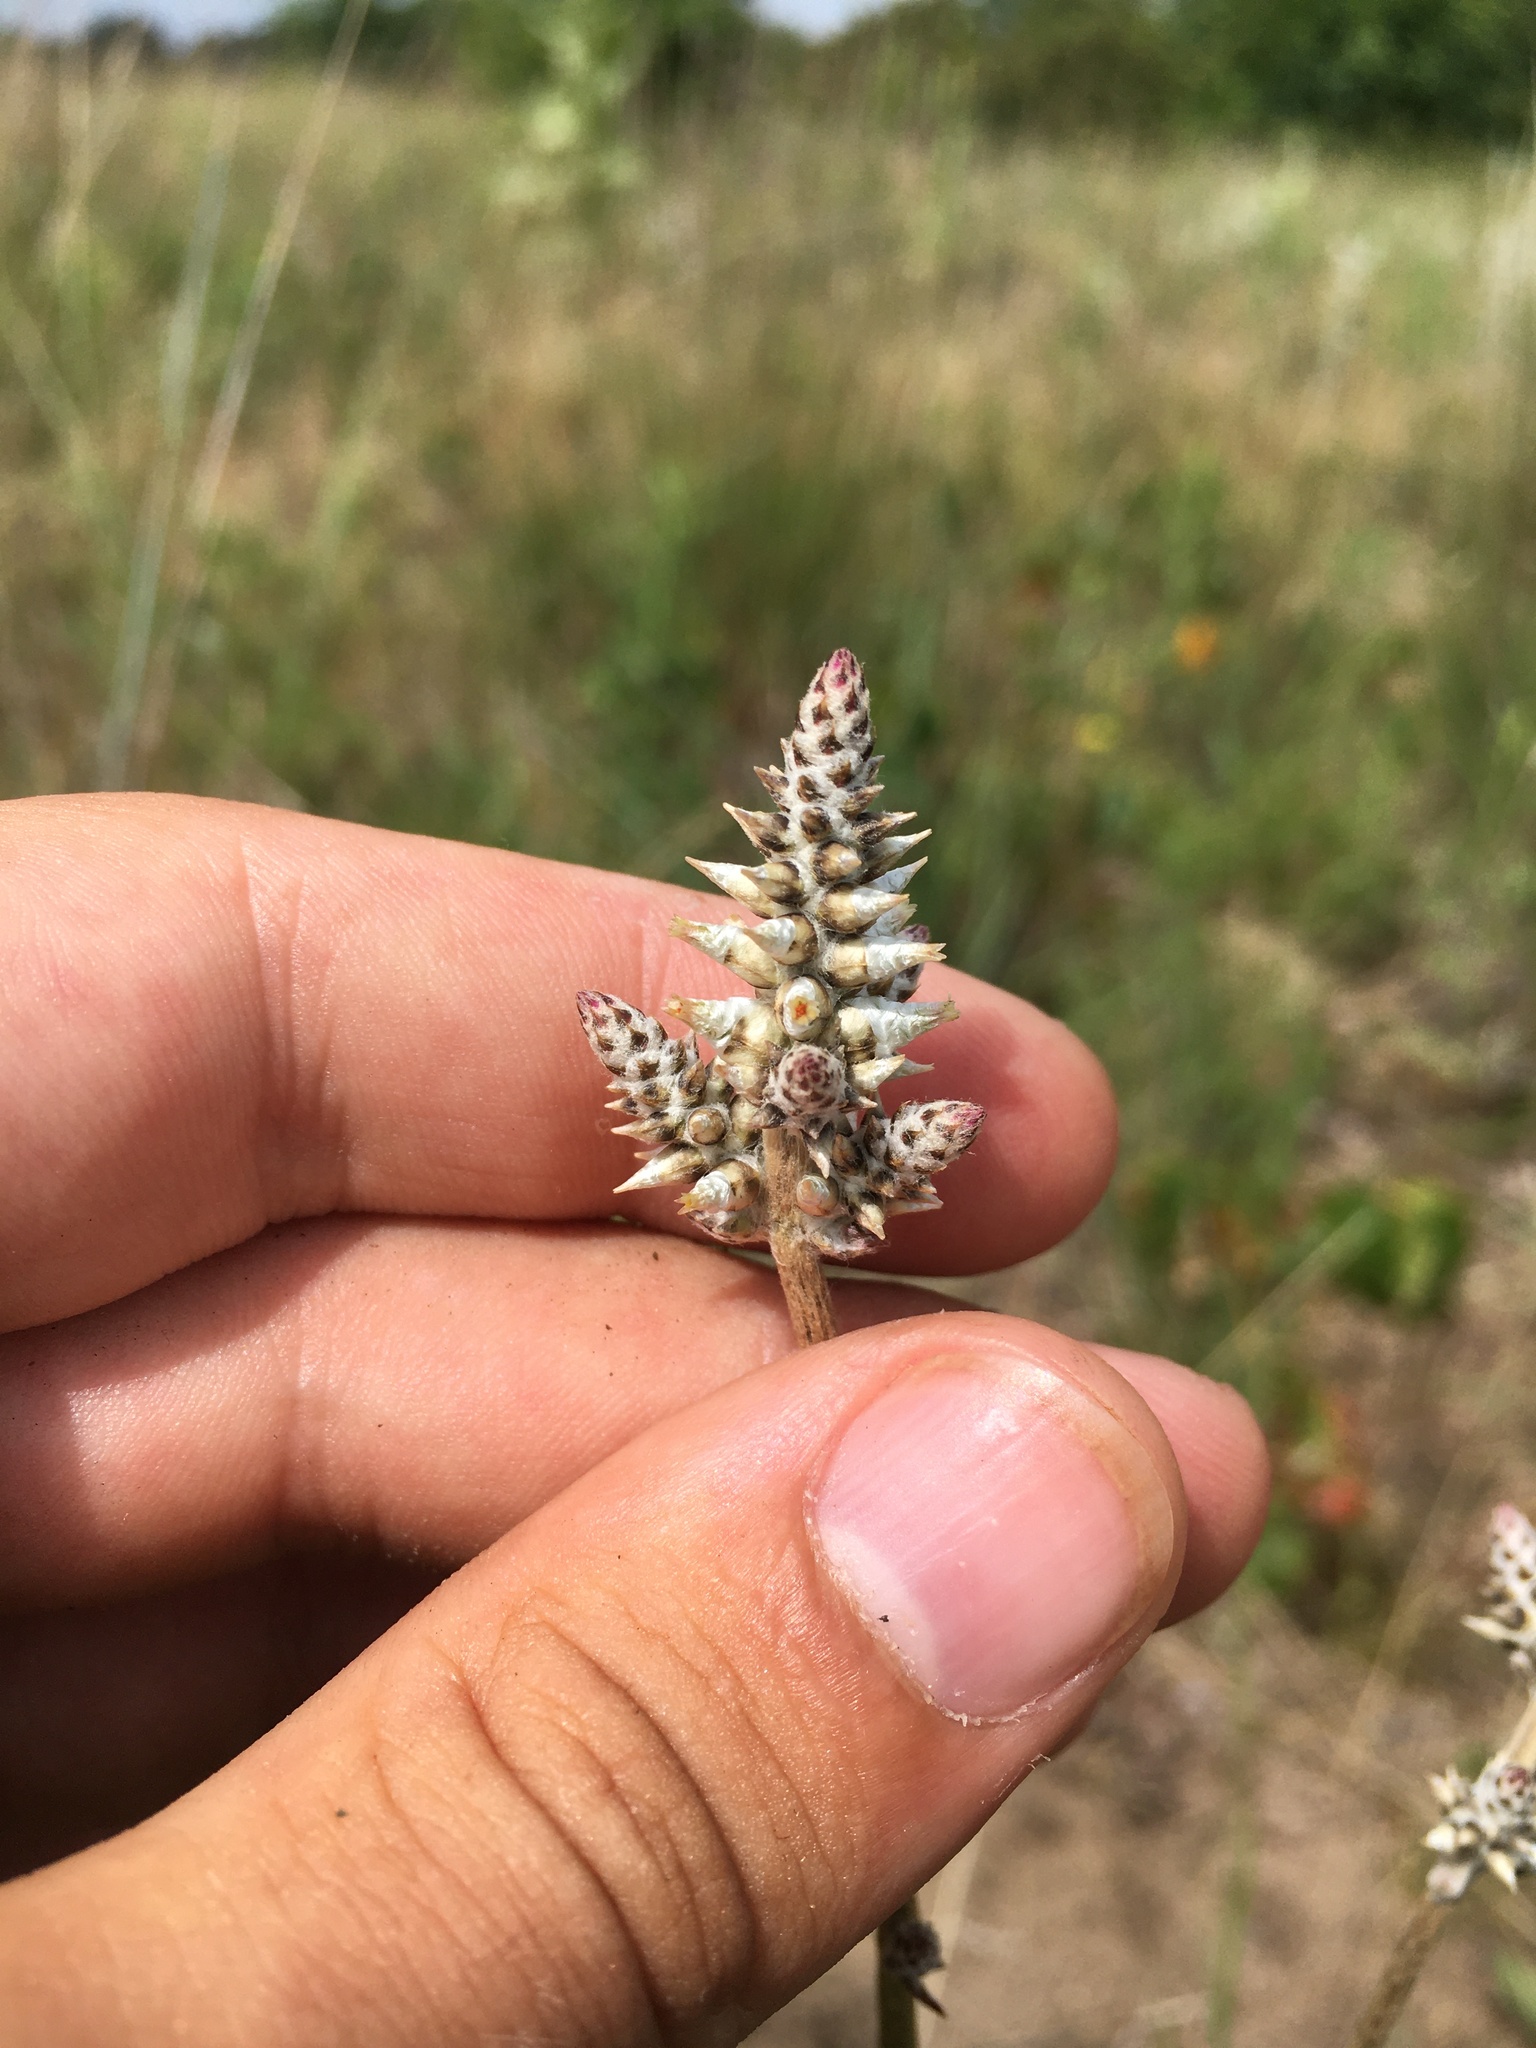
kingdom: Plantae
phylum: Tracheophyta
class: Magnoliopsida
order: Caryophyllales
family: Amaranthaceae
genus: Froelichia
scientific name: Froelichia floridana
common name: Florida snake-cotton
